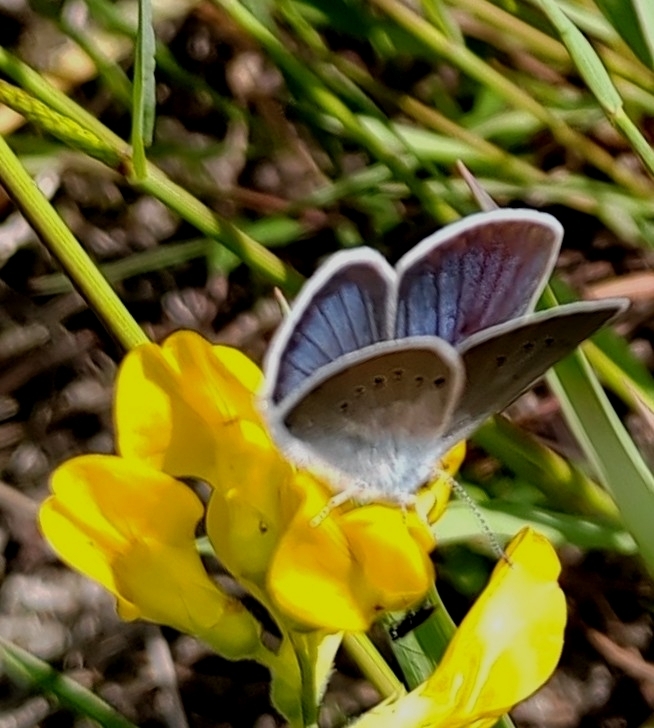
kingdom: Animalia
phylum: Arthropoda
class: Insecta
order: Lepidoptera
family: Lycaenidae
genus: Cyaniris
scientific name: Cyaniris semiargus
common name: Mazarine blue
